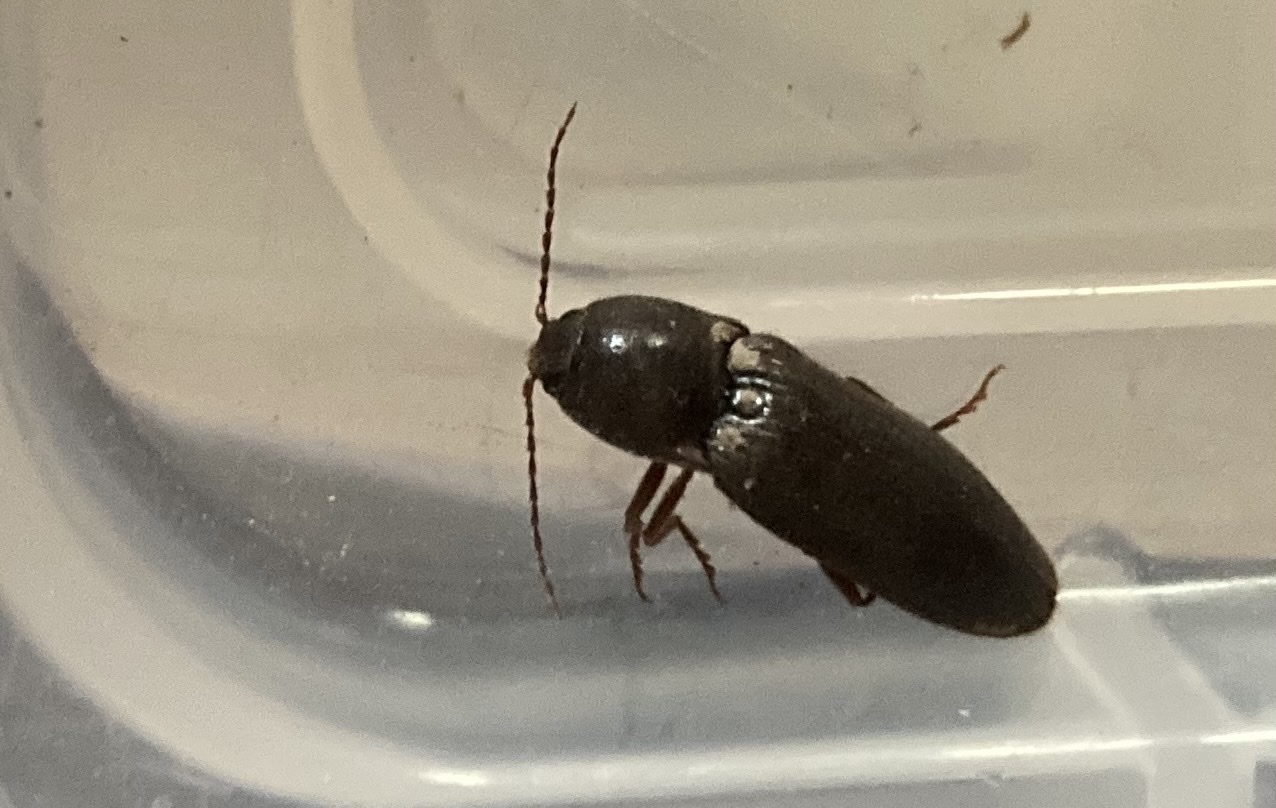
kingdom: Animalia
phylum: Arthropoda
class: Insecta
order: Coleoptera
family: Elateridae
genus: Hemicrepidius
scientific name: Hemicrepidius
